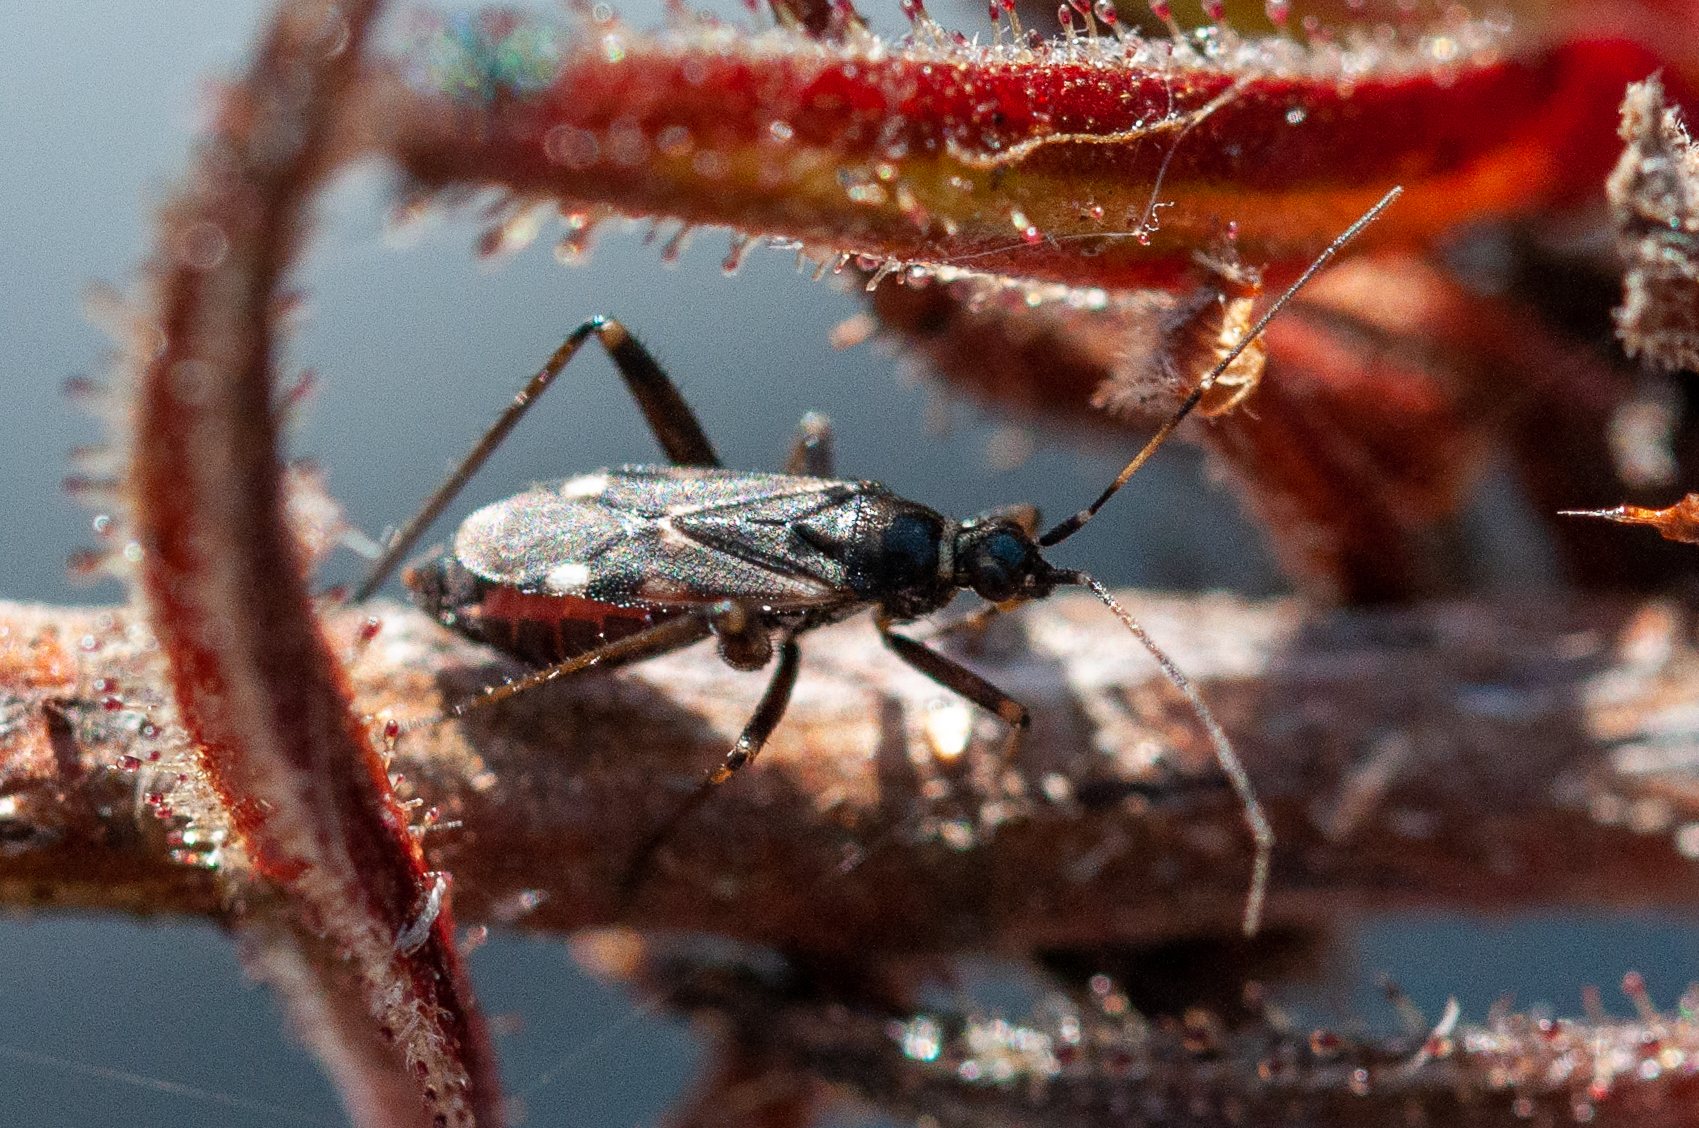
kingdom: Animalia
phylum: Arthropoda
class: Insecta
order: Hemiptera
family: Miridae
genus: Pameridea
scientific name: Pameridea marlothi
